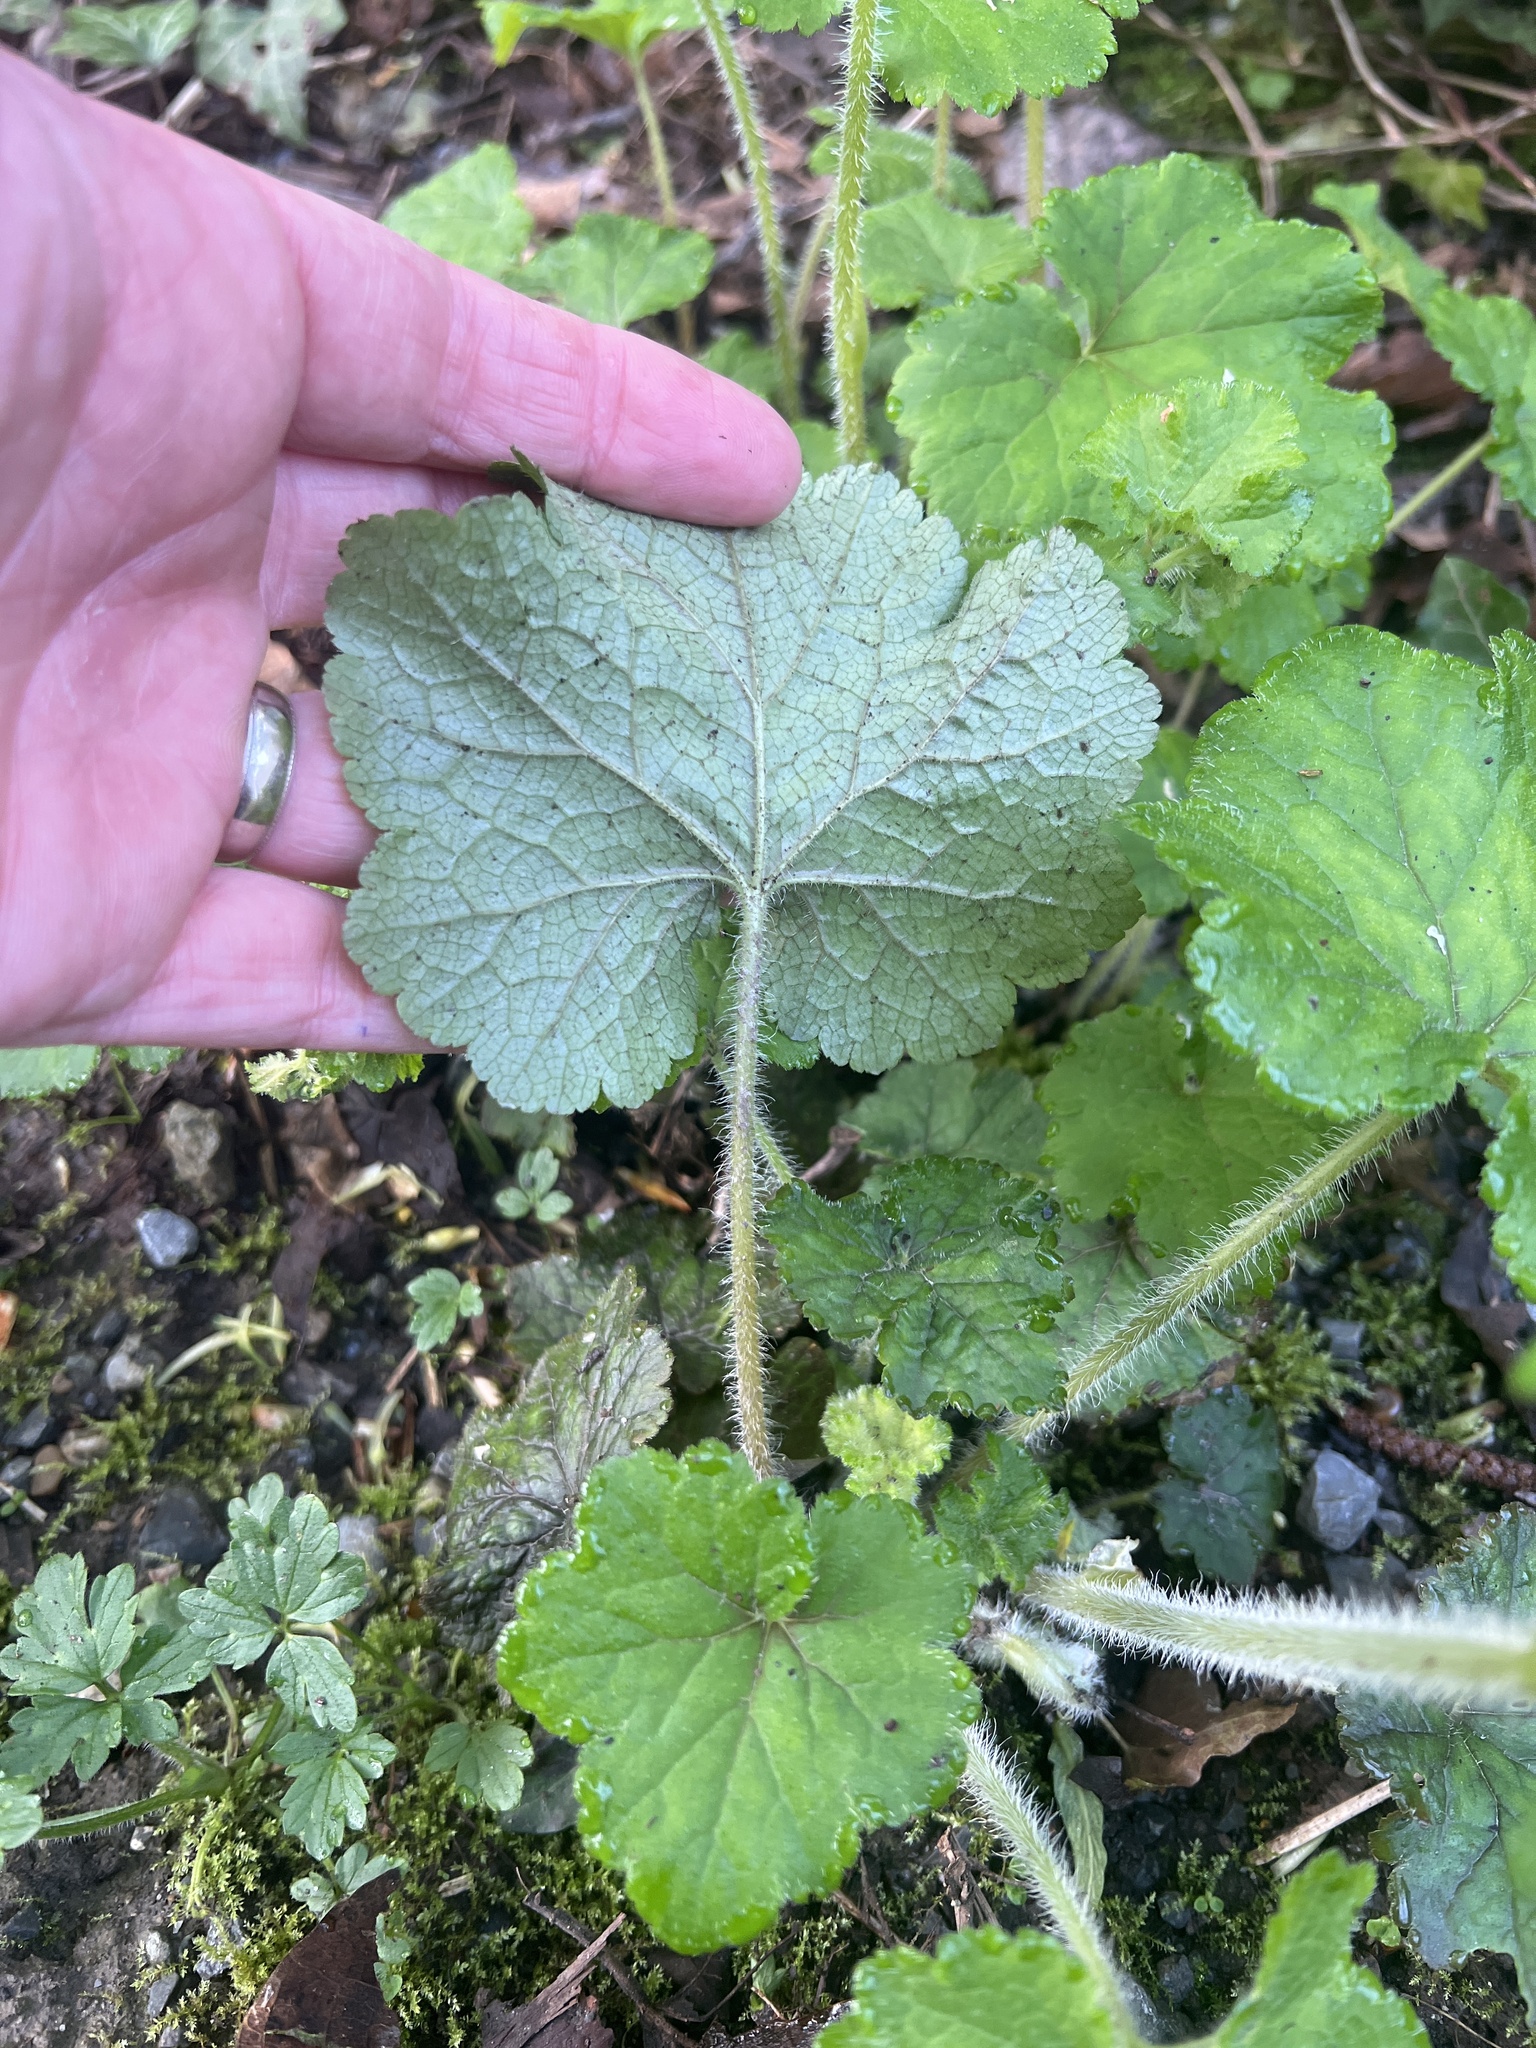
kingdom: Plantae
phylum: Tracheophyta
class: Magnoliopsida
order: Saxifragales
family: Saxifragaceae
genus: Tellima
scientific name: Tellima grandiflora
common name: Fringecups
